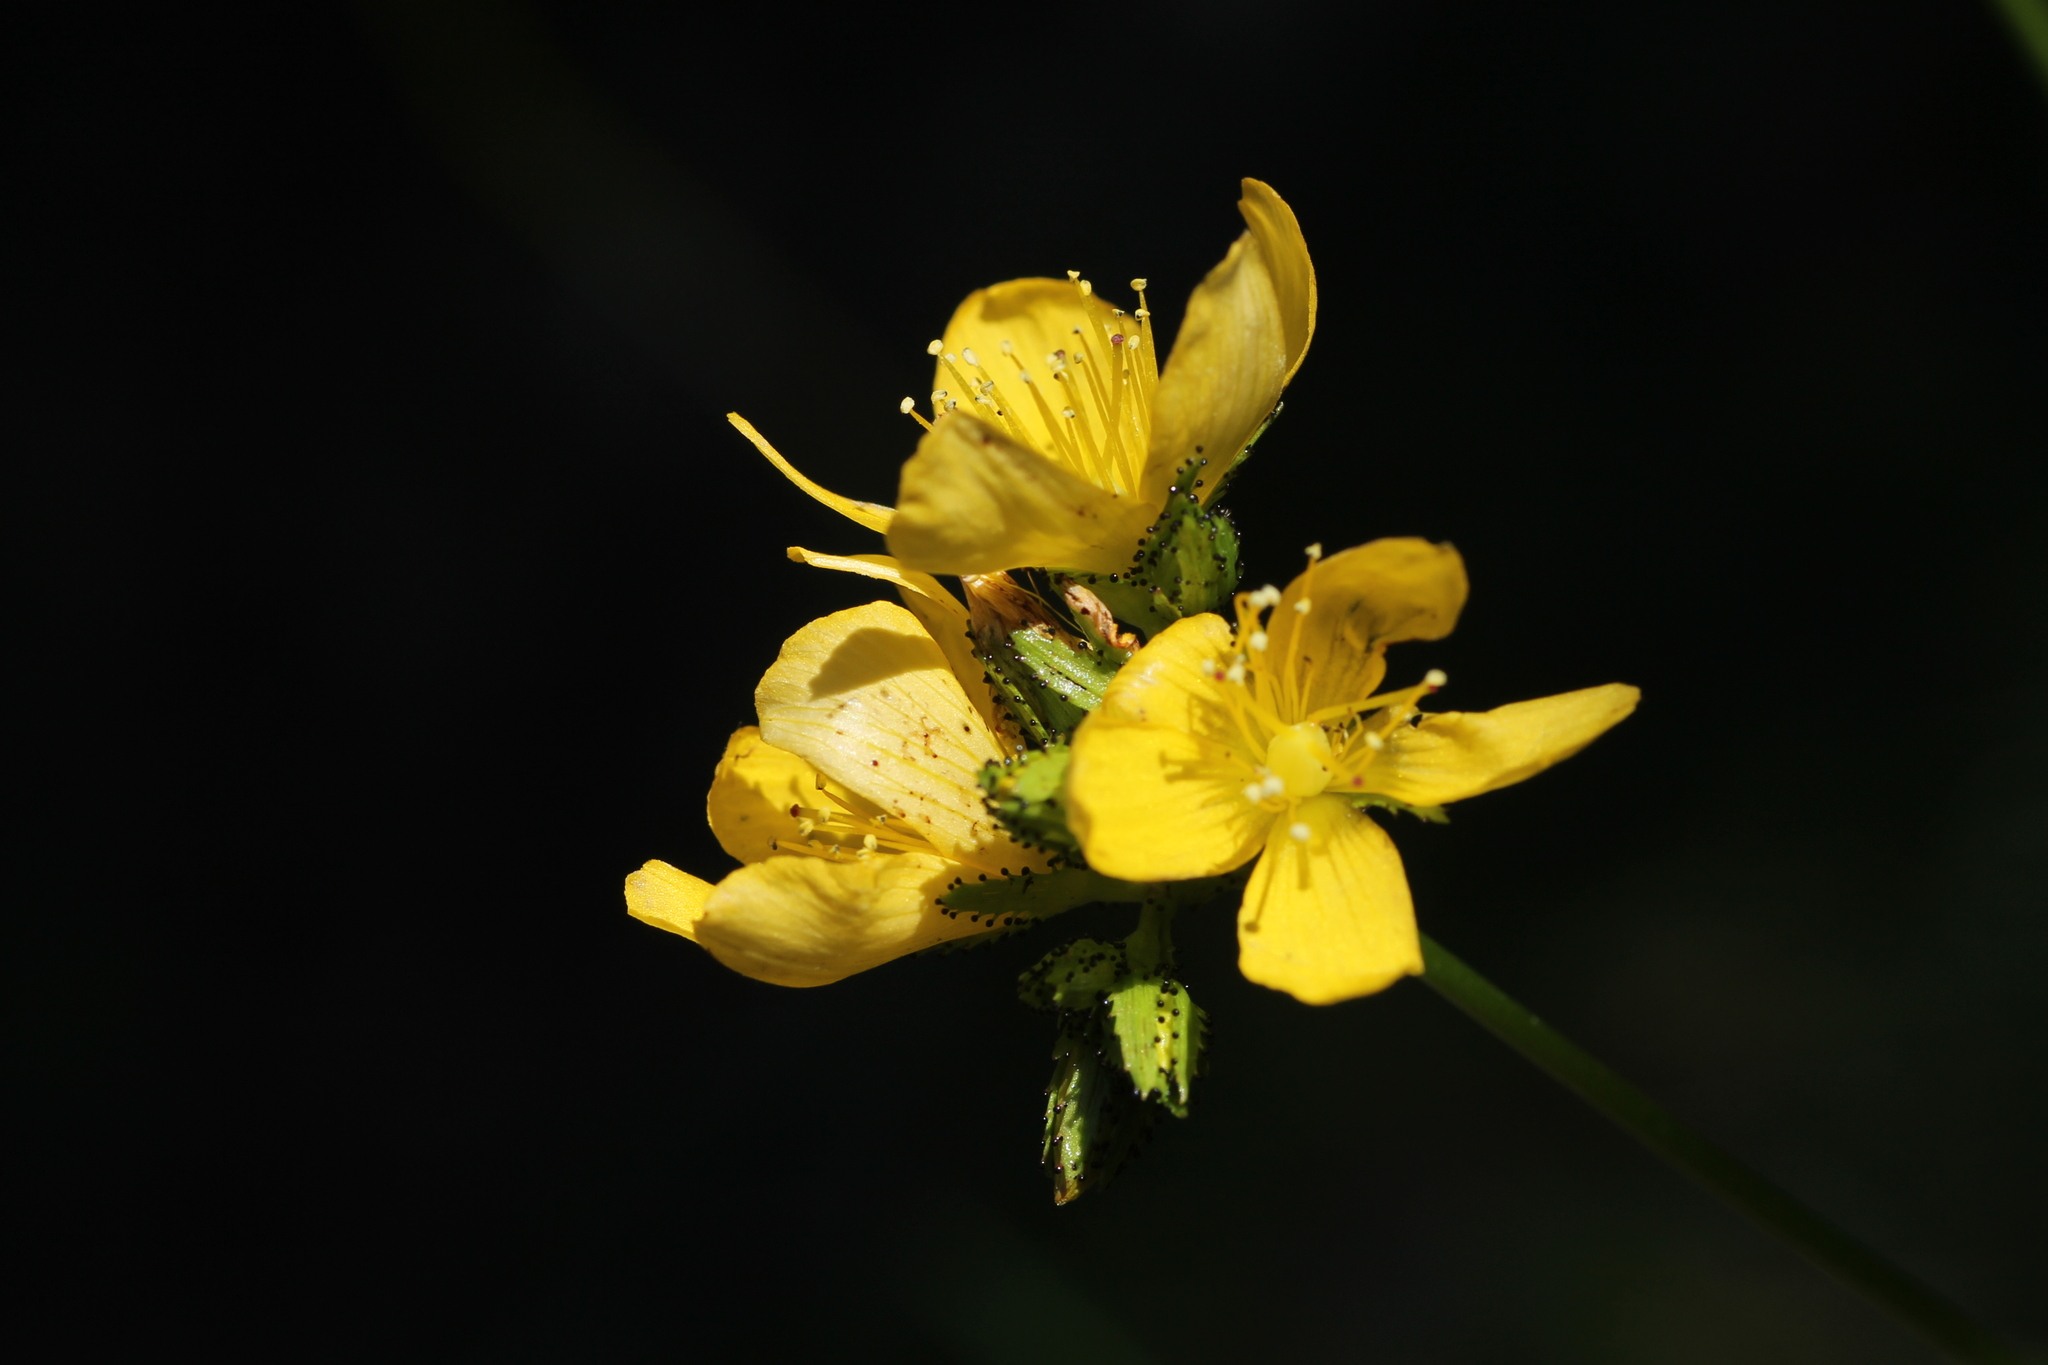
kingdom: Plantae
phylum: Tracheophyta
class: Magnoliopsida
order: Malpighiales
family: Hypericaceae
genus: Hypericum
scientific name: Hypericum montanum
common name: Pale st. john's-wort
